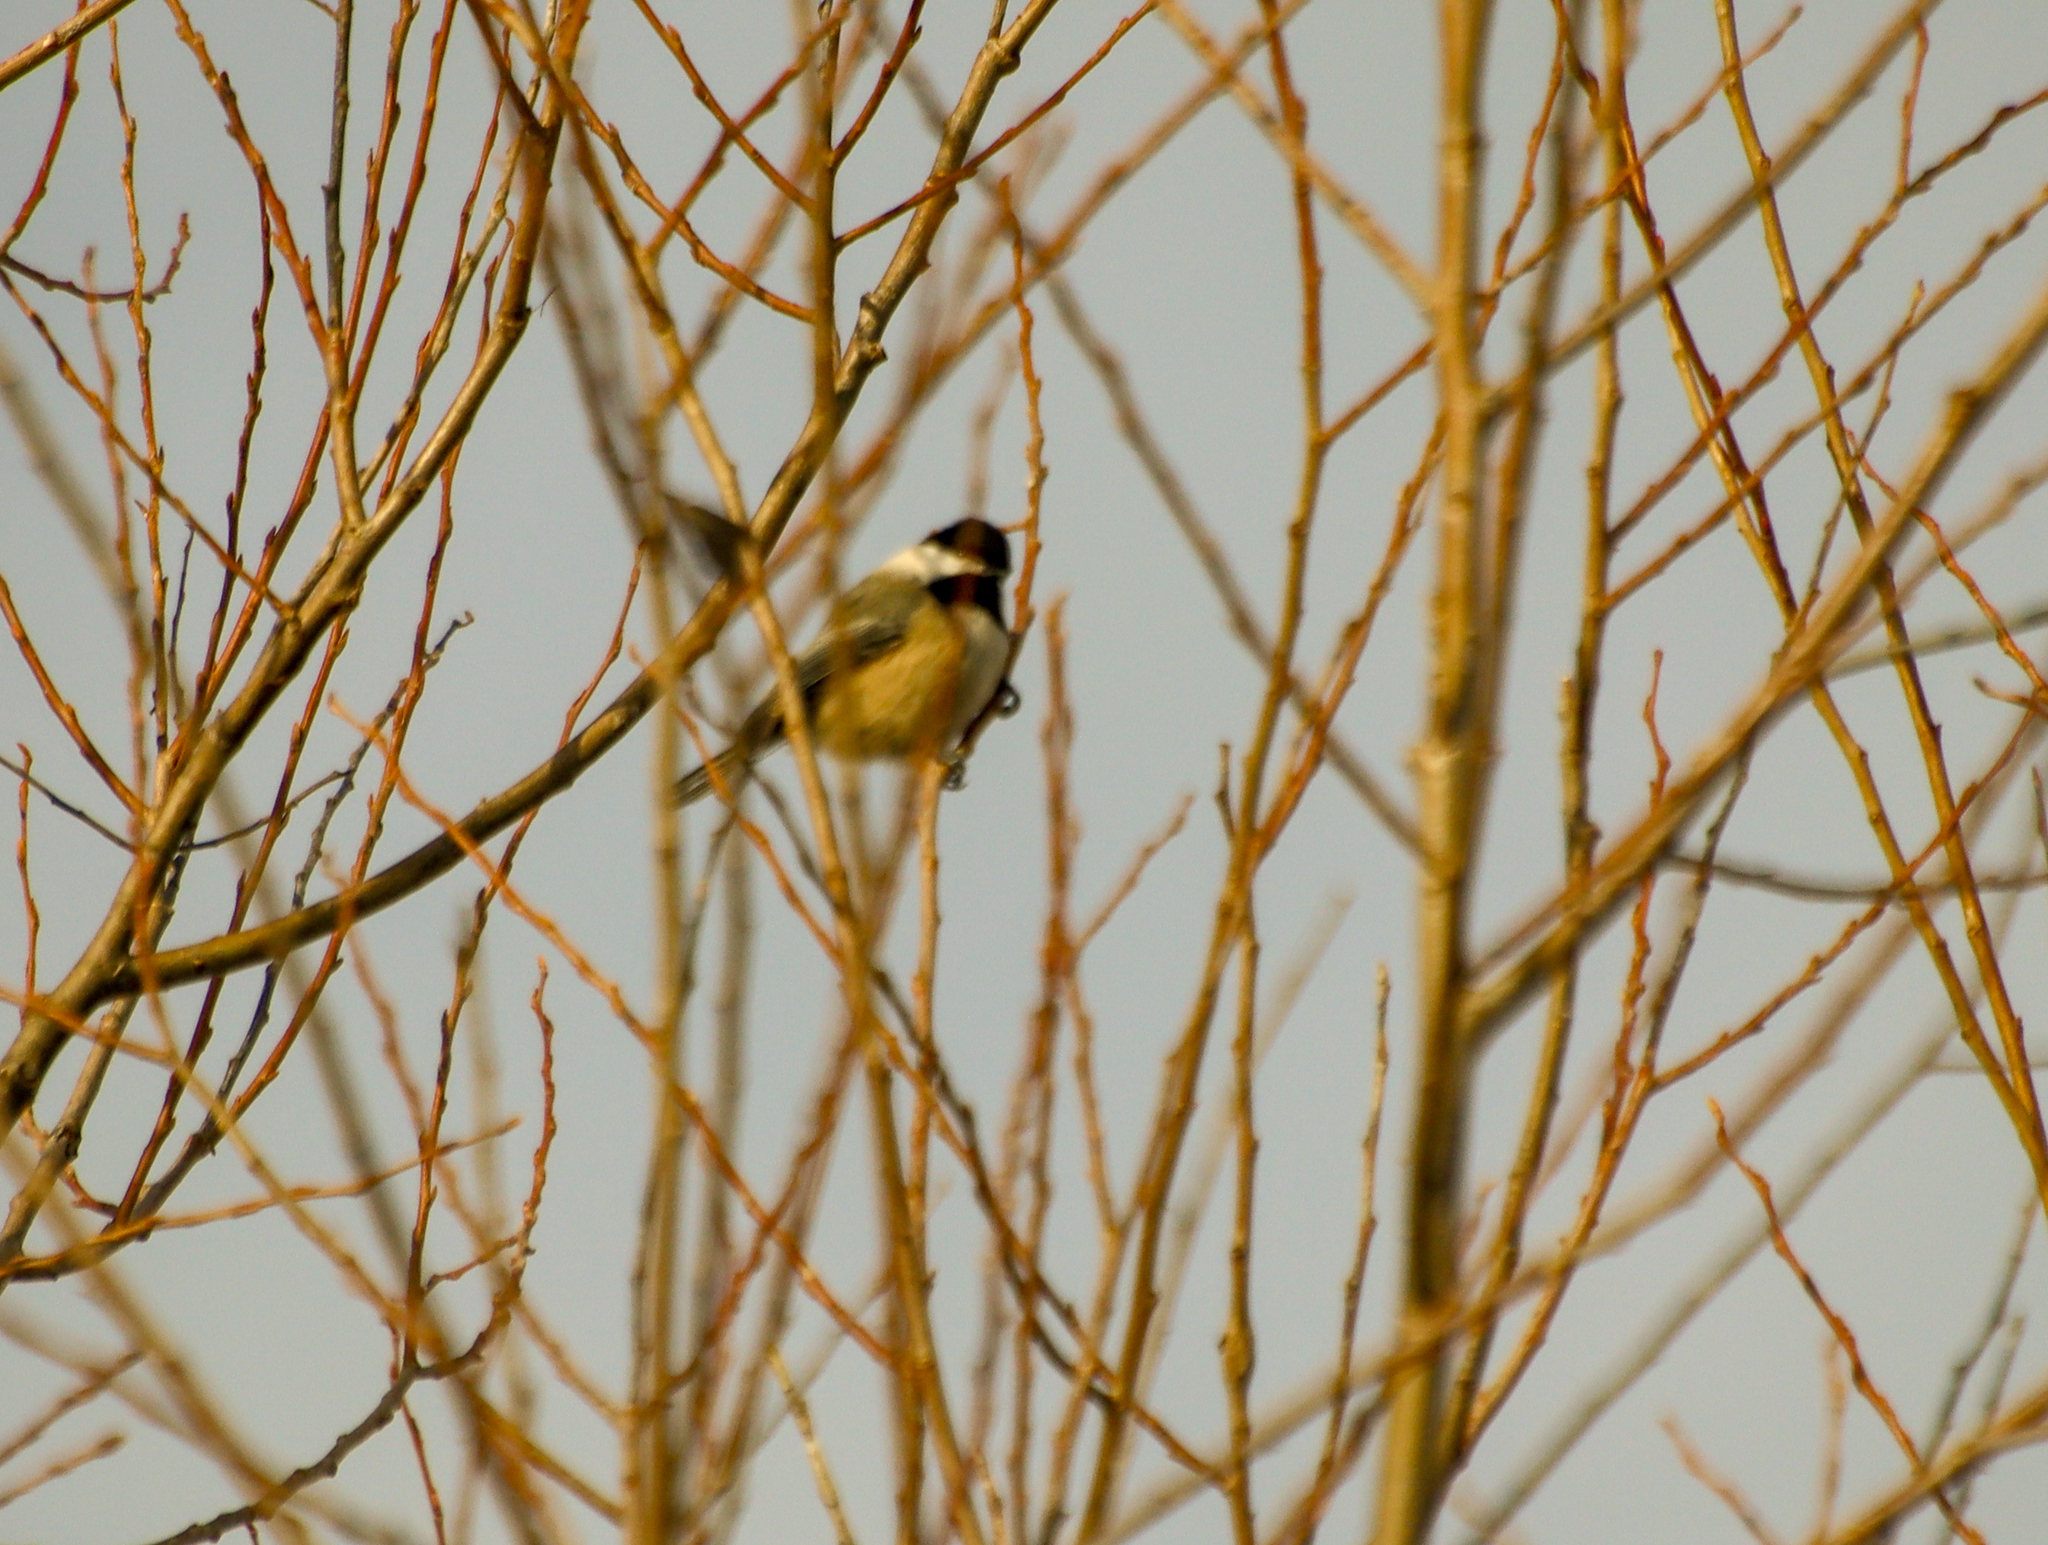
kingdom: Animalia
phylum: Chordata
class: Aves
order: Passeriformes
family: Paridae
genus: Poecile
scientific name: Poecile atricapillus
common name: Black-capped chickadee
